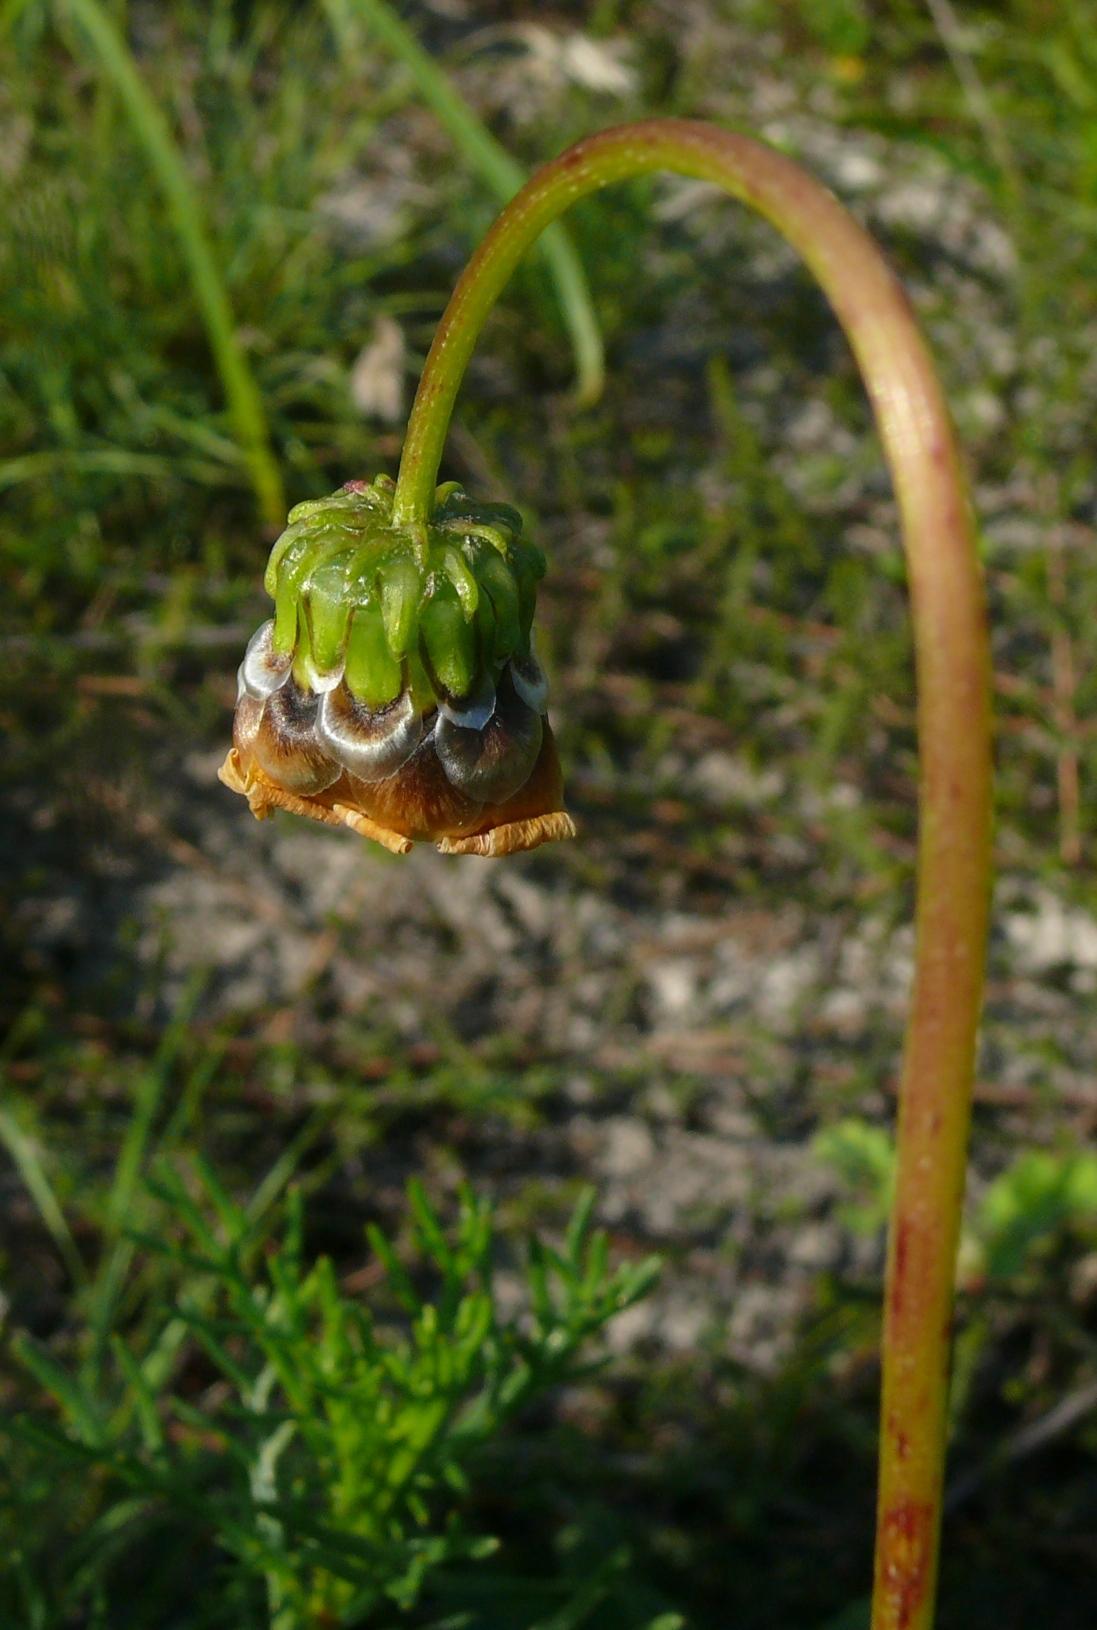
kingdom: Plantae
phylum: Tracheophyta
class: Magnoliopsida
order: Asterales
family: Asteraceae
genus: Ursinia
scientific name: Ursinia paleacea
